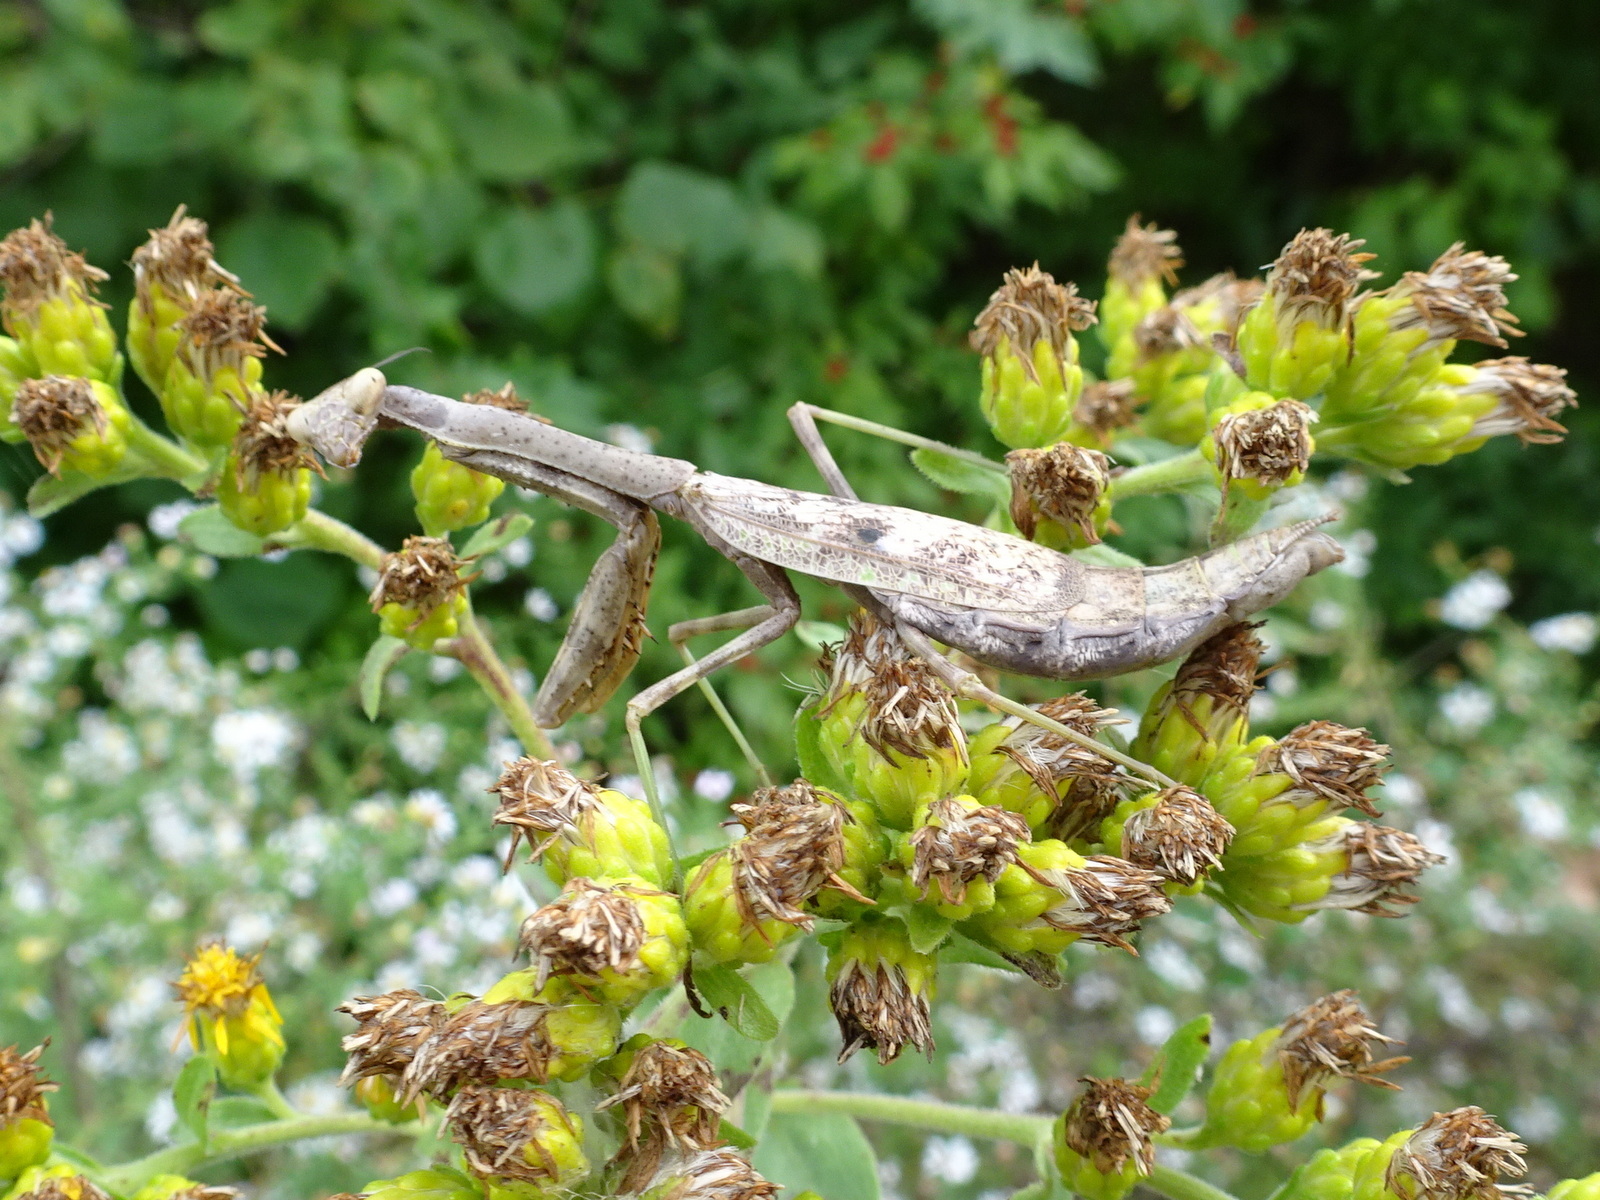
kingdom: Animalia
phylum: Arthropoda
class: Insecta
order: Mantodea
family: Mantidae
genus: Stagmomantis
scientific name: Stagmomantis carolina
